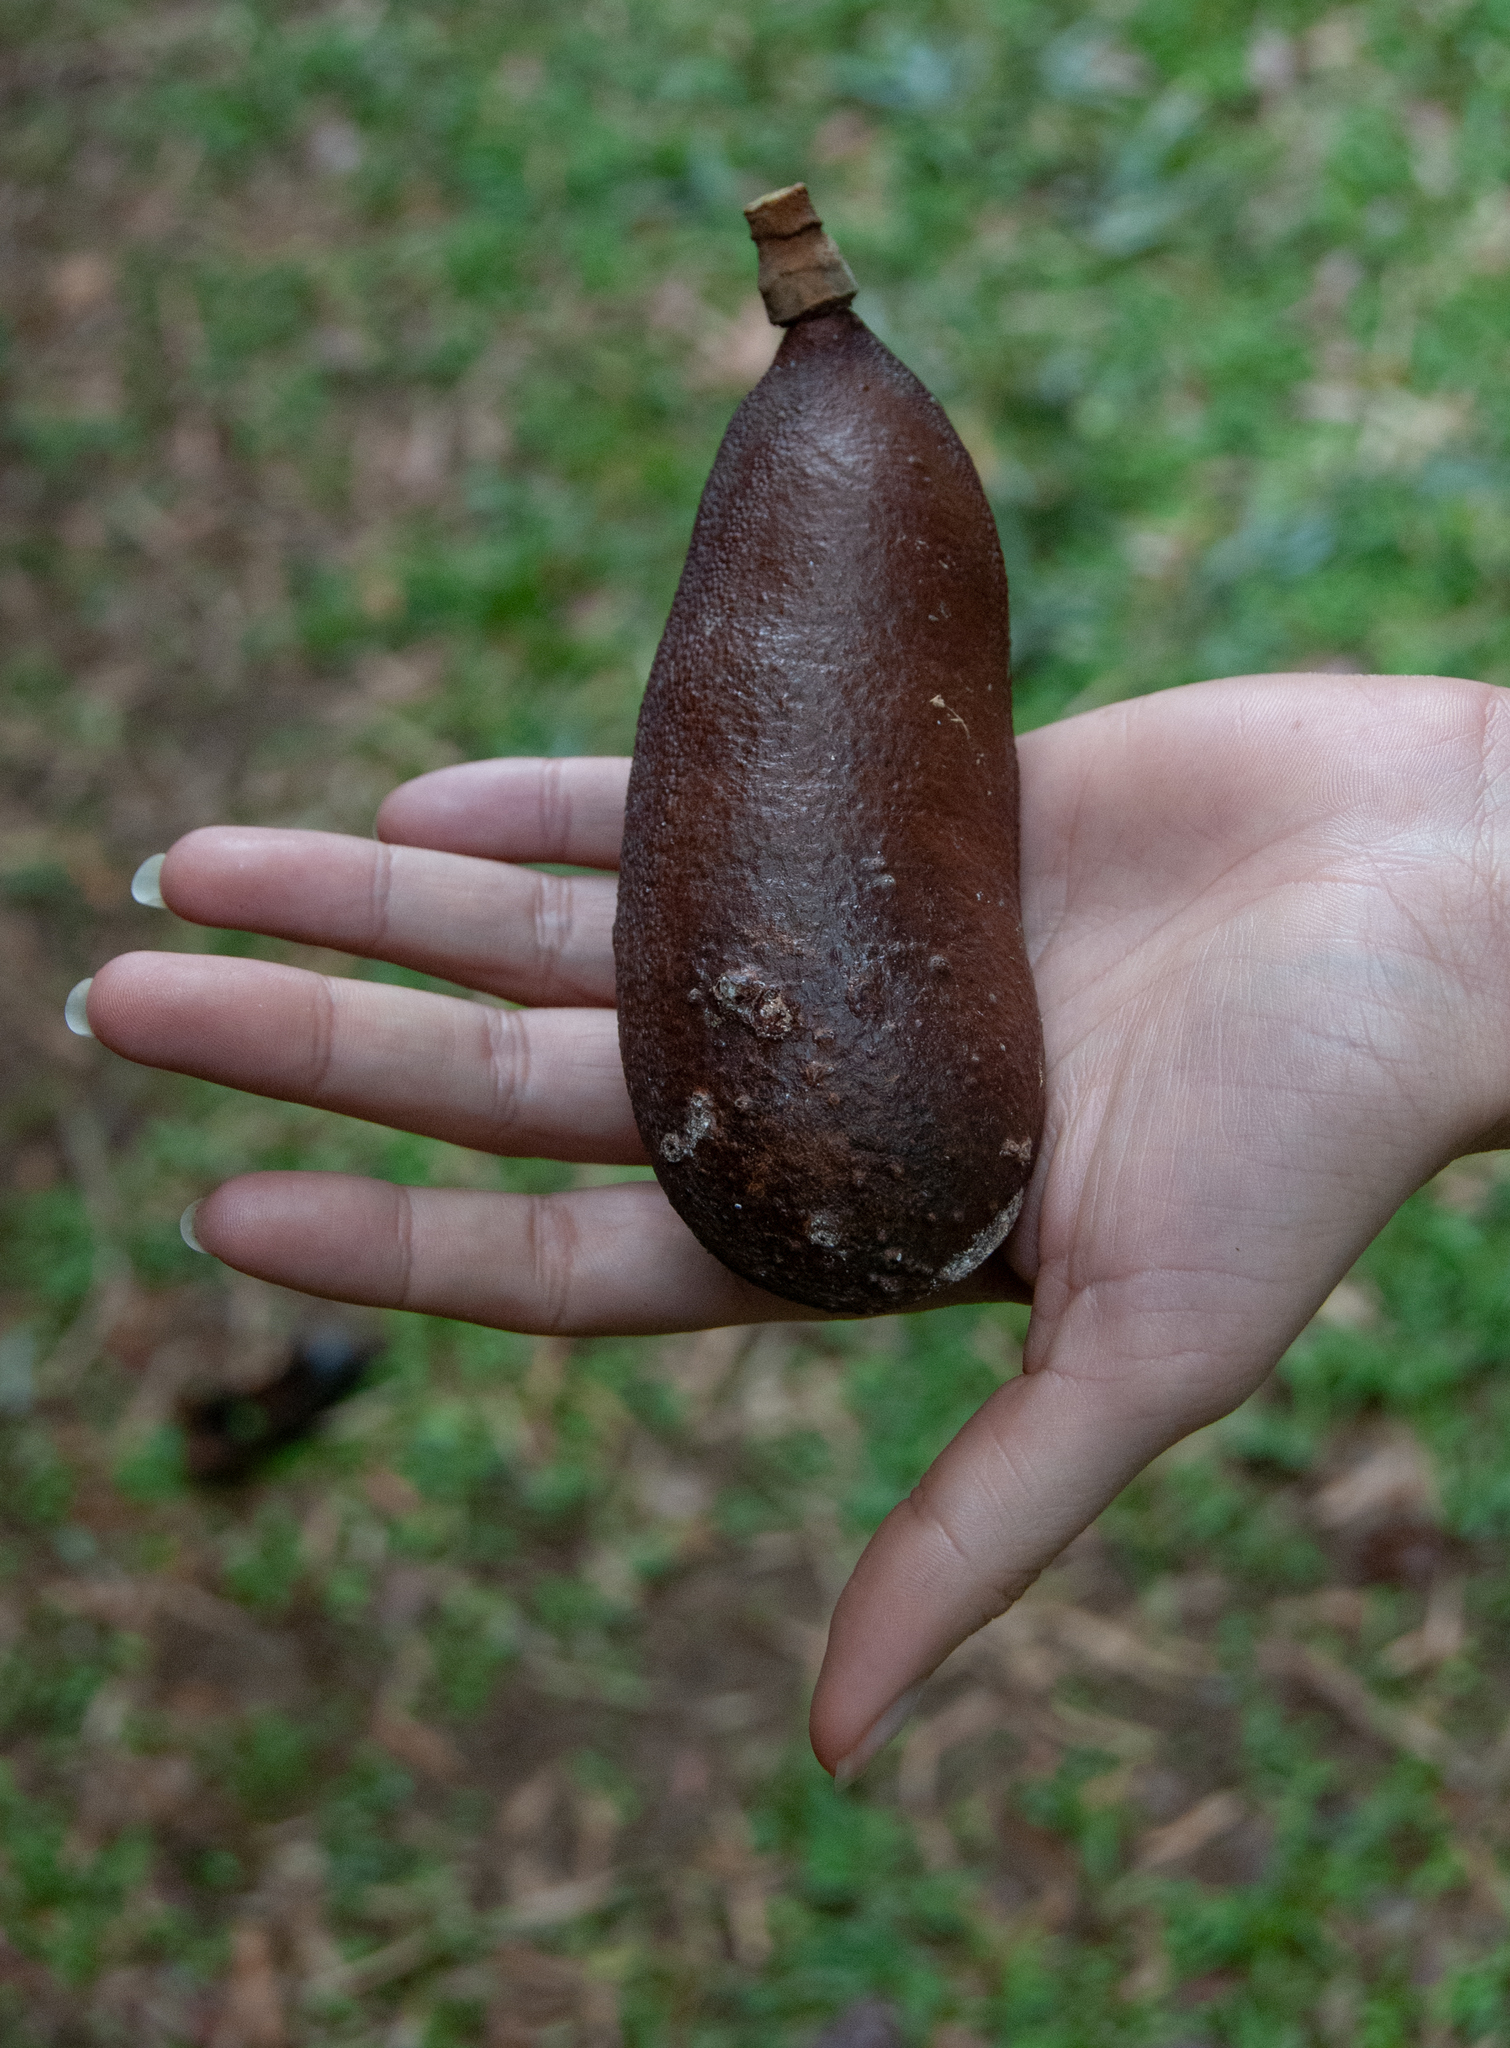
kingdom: Plantae
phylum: Tracheophyta
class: Magnoliopsida
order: Fabales
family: Fabaceae
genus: Hymenaea
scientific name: Hymenaea courbaril
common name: Brazilian copal
